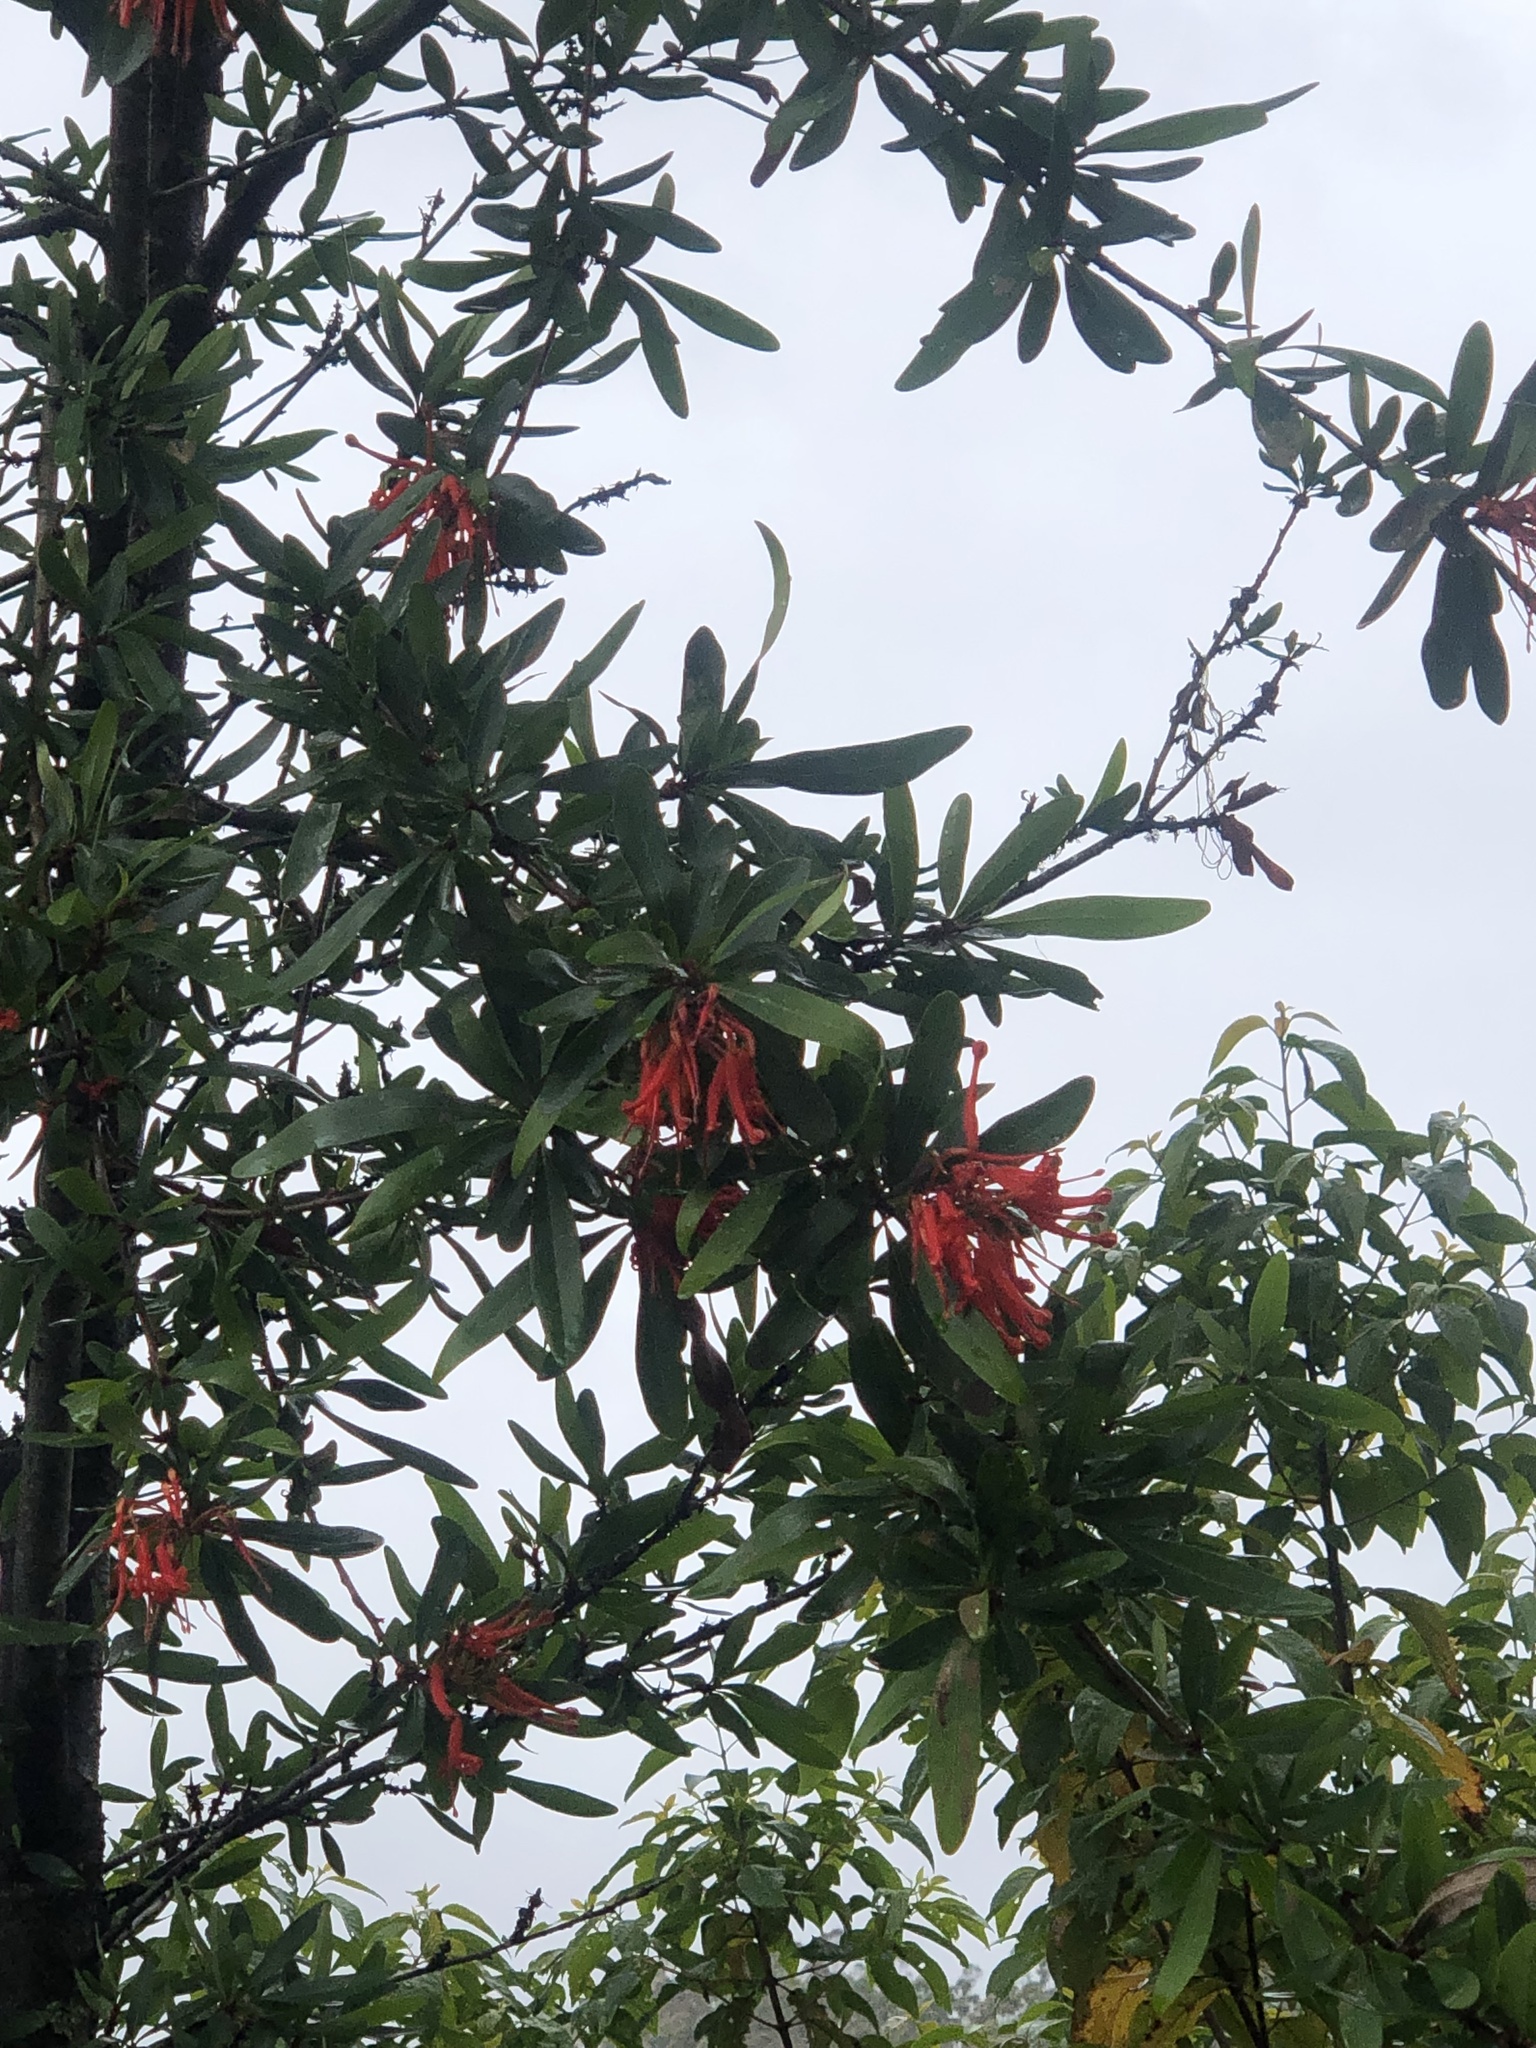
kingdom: Plantae
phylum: Tracheophyta
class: Magnoliopsida
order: Proteales
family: Proteaceae
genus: Embothrium
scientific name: Embothrium coccineum
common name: Chilean firebush
